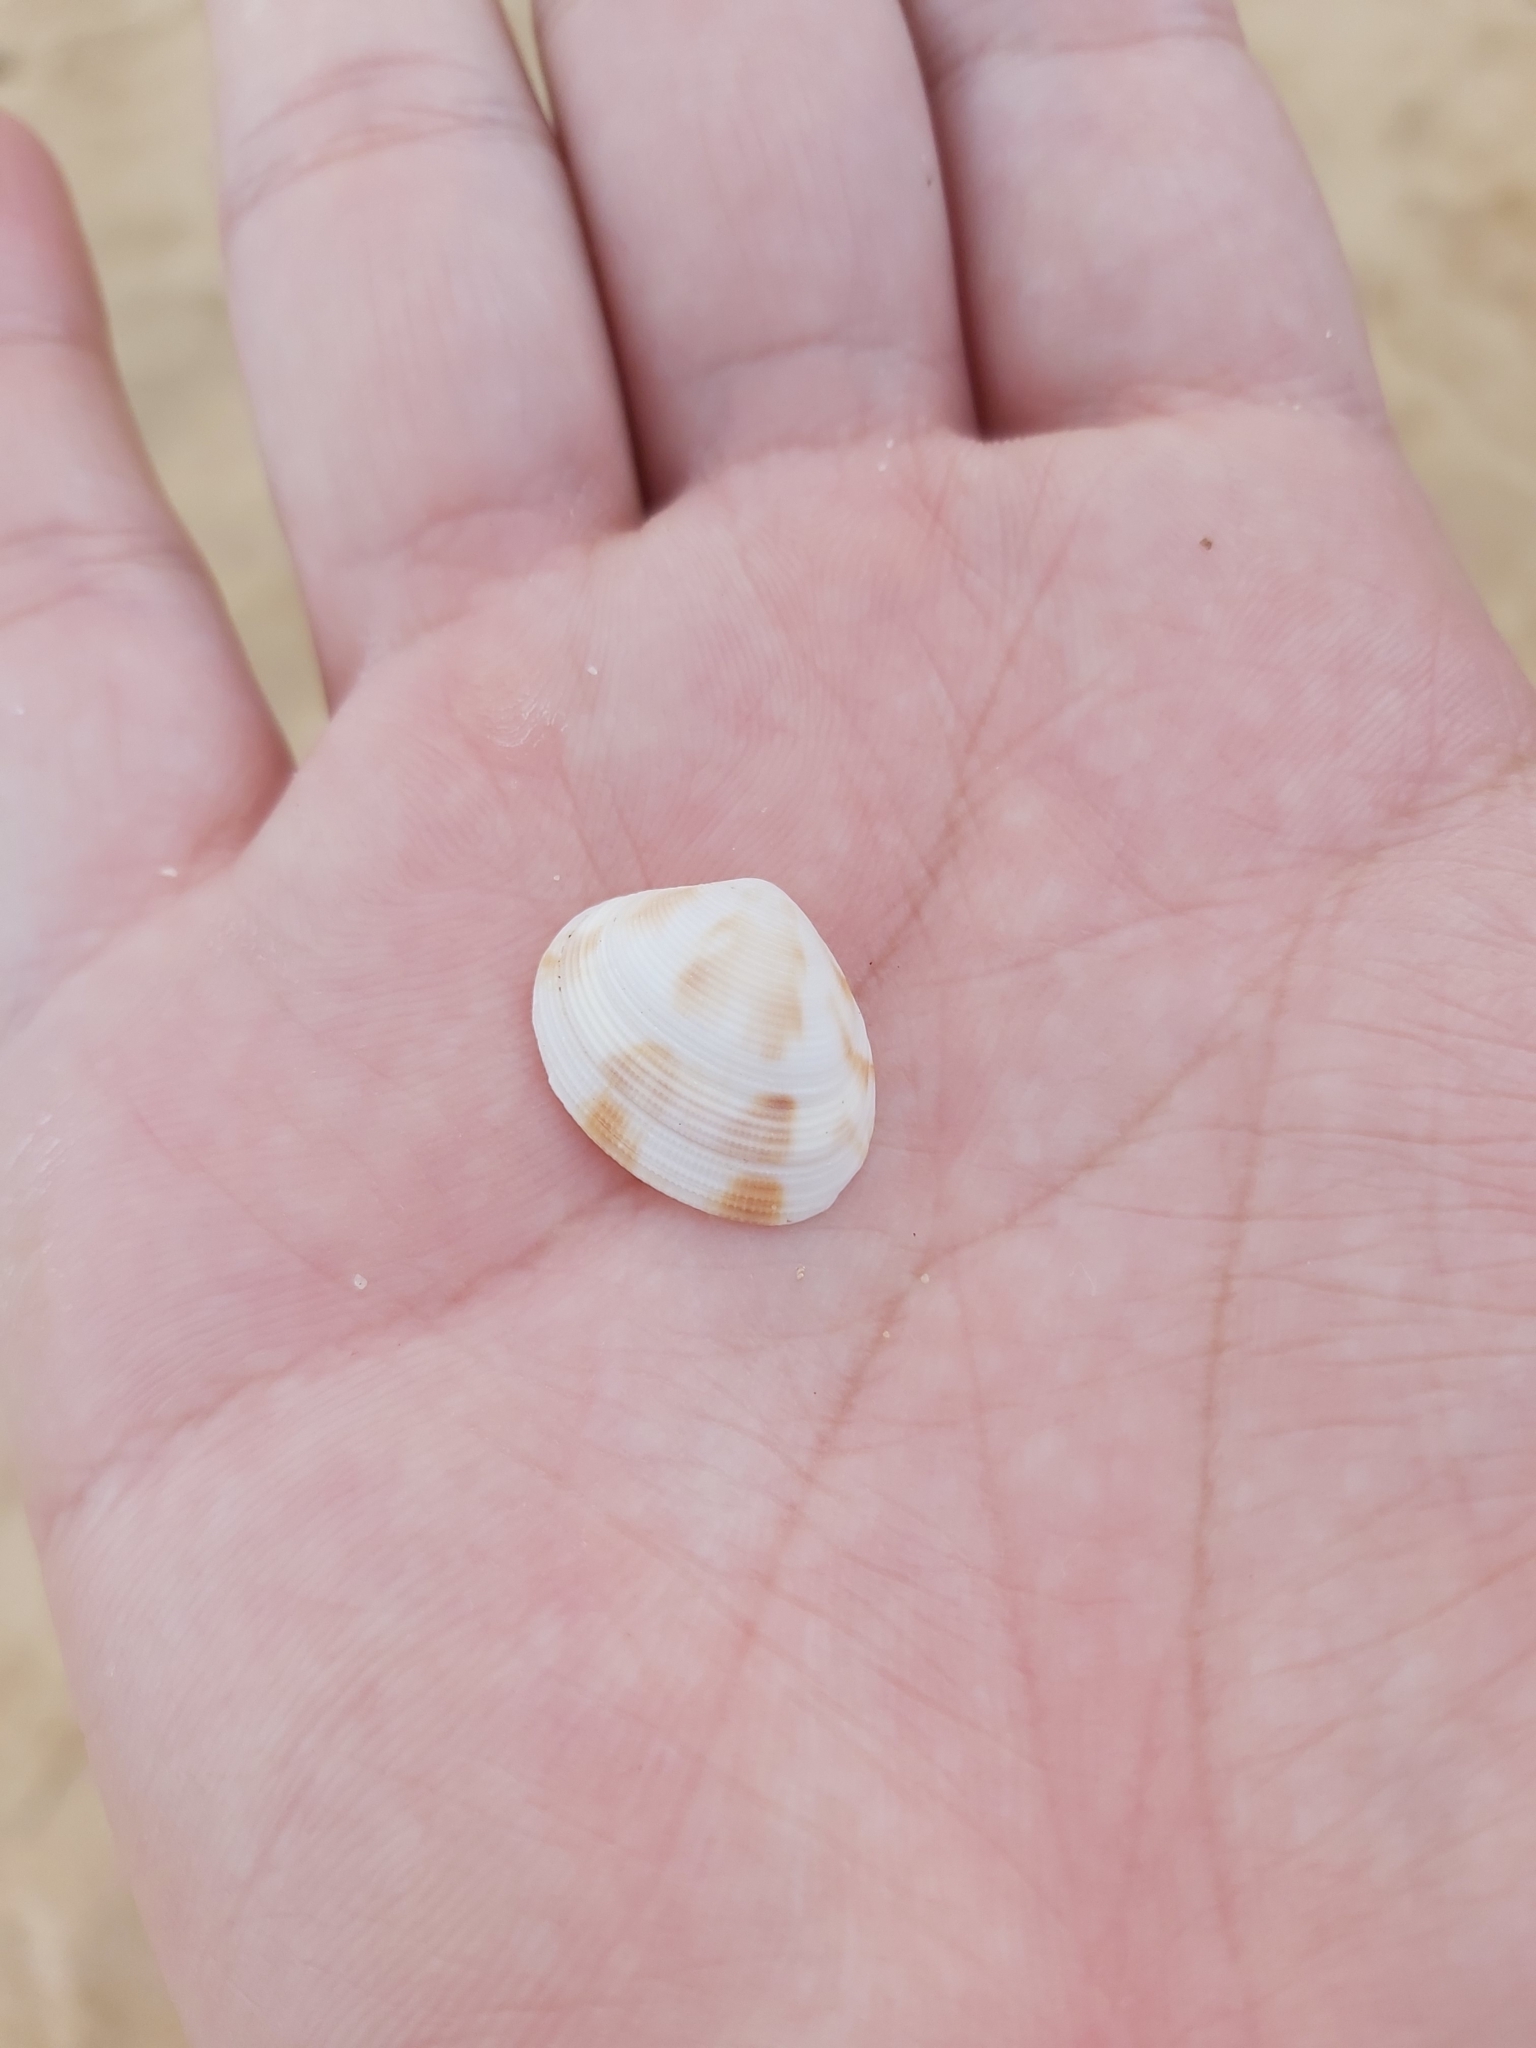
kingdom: Animalia
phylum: Mollusca
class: Bivalvia
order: Venerida
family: Veneridae
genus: Tawera
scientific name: Tawera lagopus
